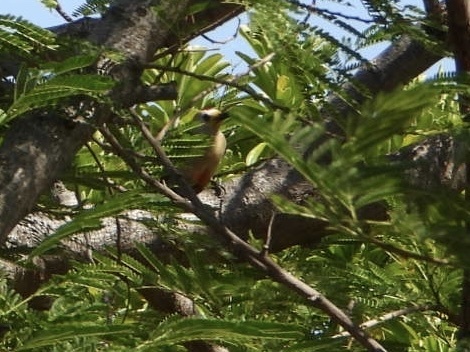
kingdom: Animalia
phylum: Chordata
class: Aves
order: Piciformes
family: Picidae
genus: Melanerpes
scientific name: Melanerpes pygmaeus
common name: Yucatan woodpecker
